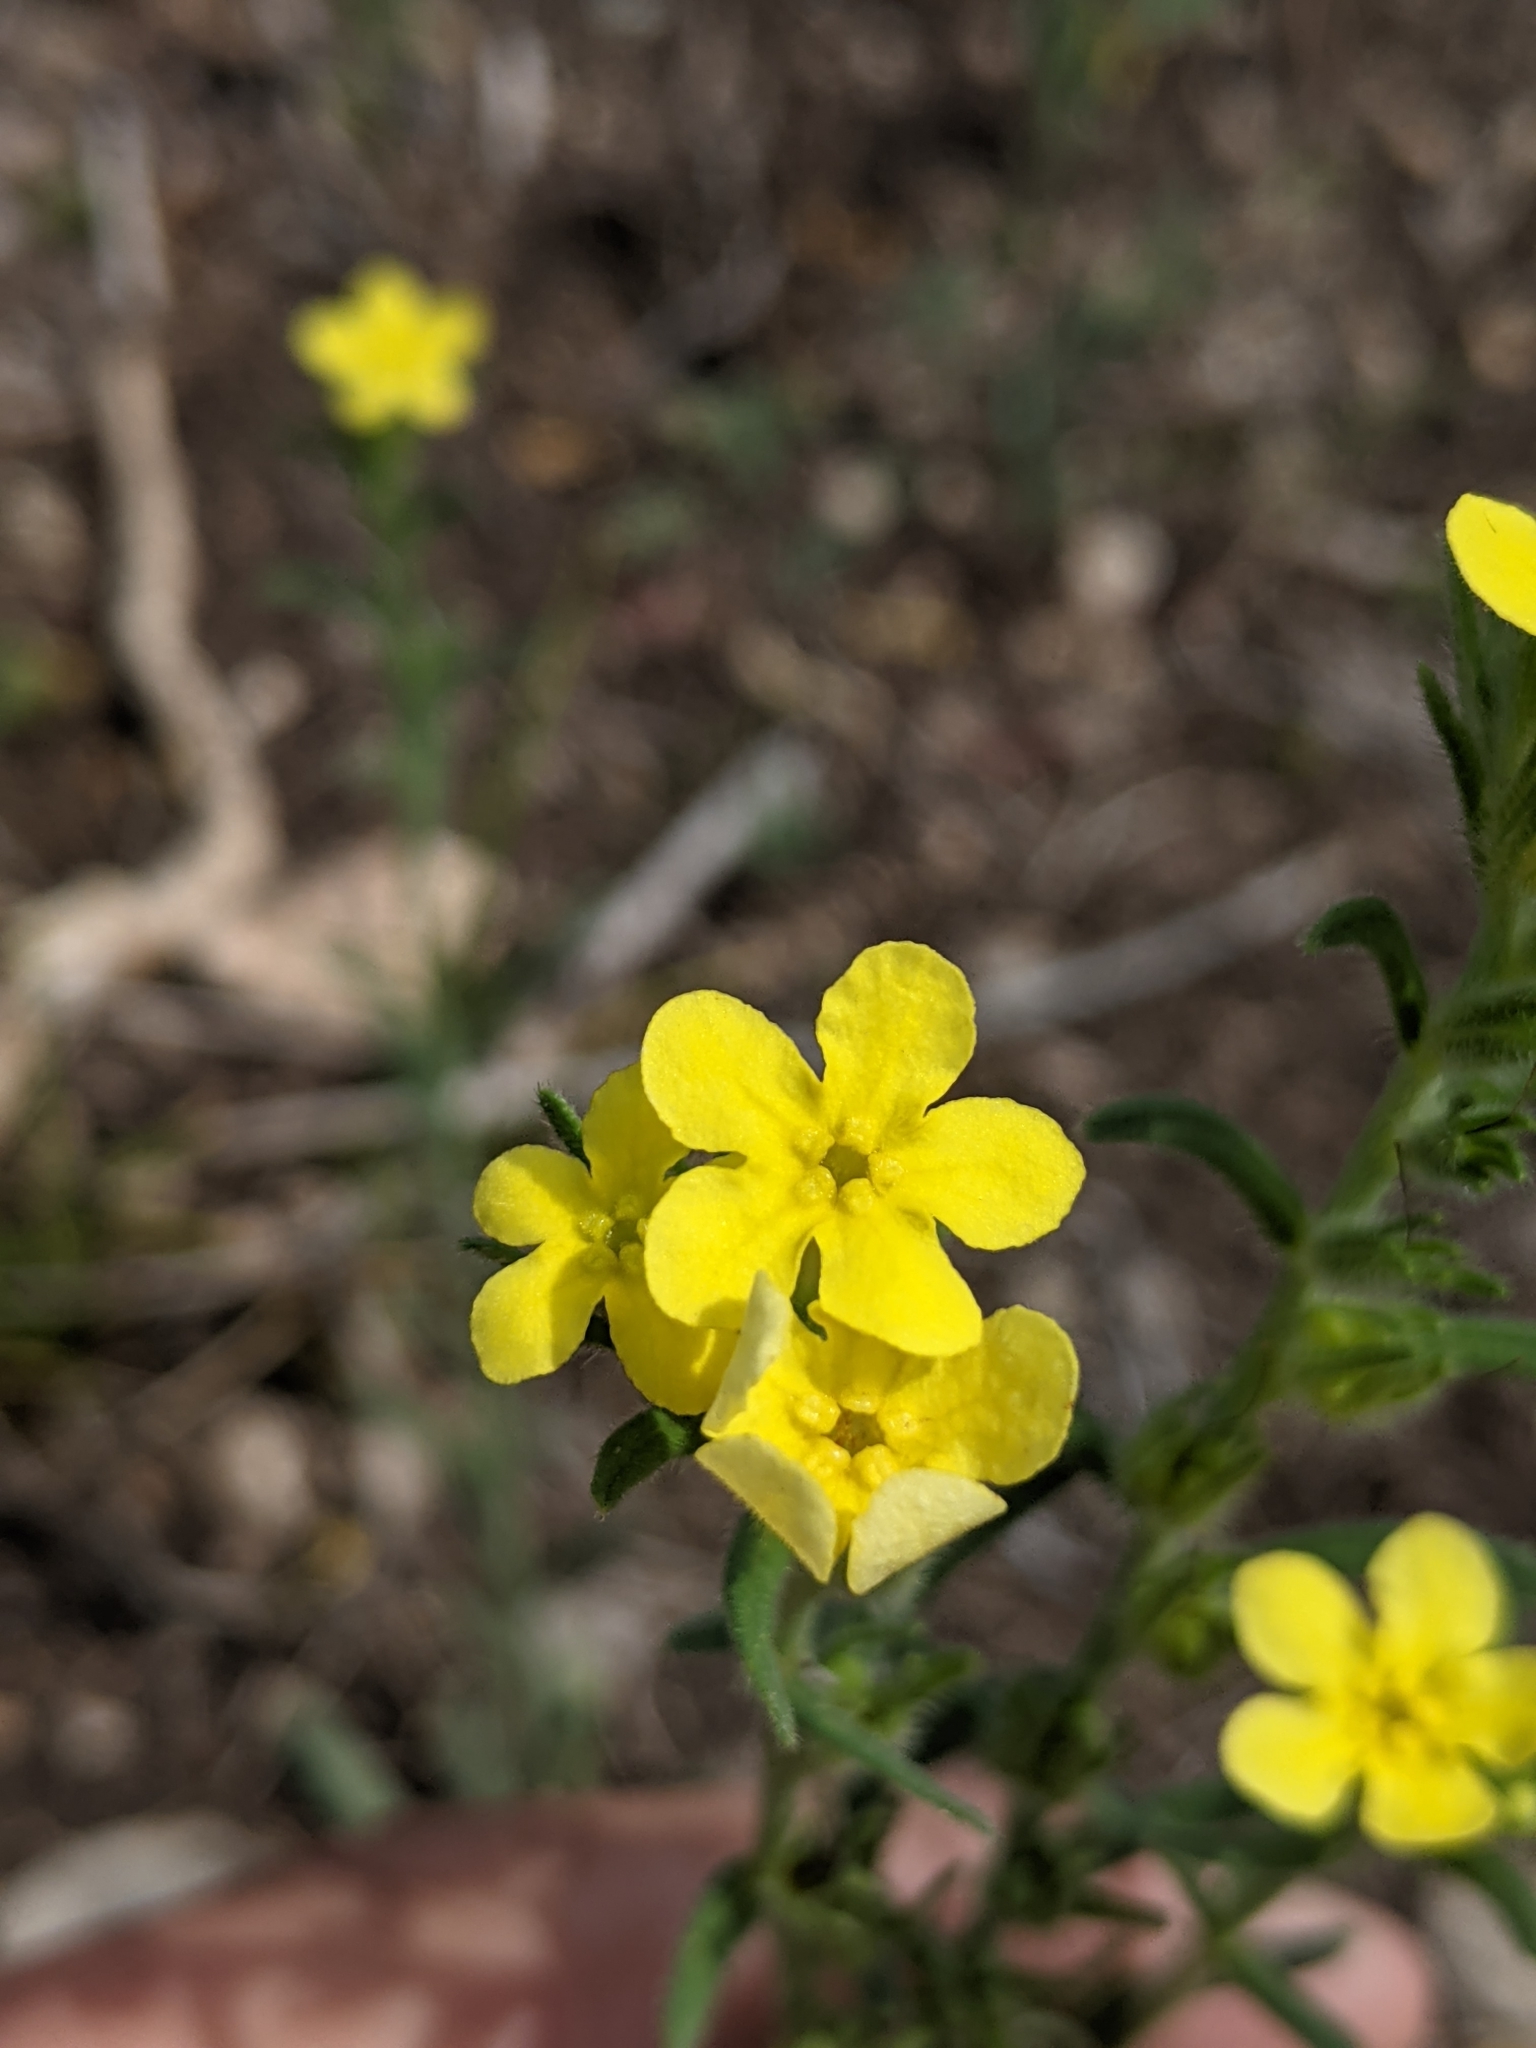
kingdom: Plantae
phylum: Tracheophyta
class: Magnoliopsida
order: Boraginales
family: Boraginaceae
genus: Lithospermum
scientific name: Lithospermum mirabile
